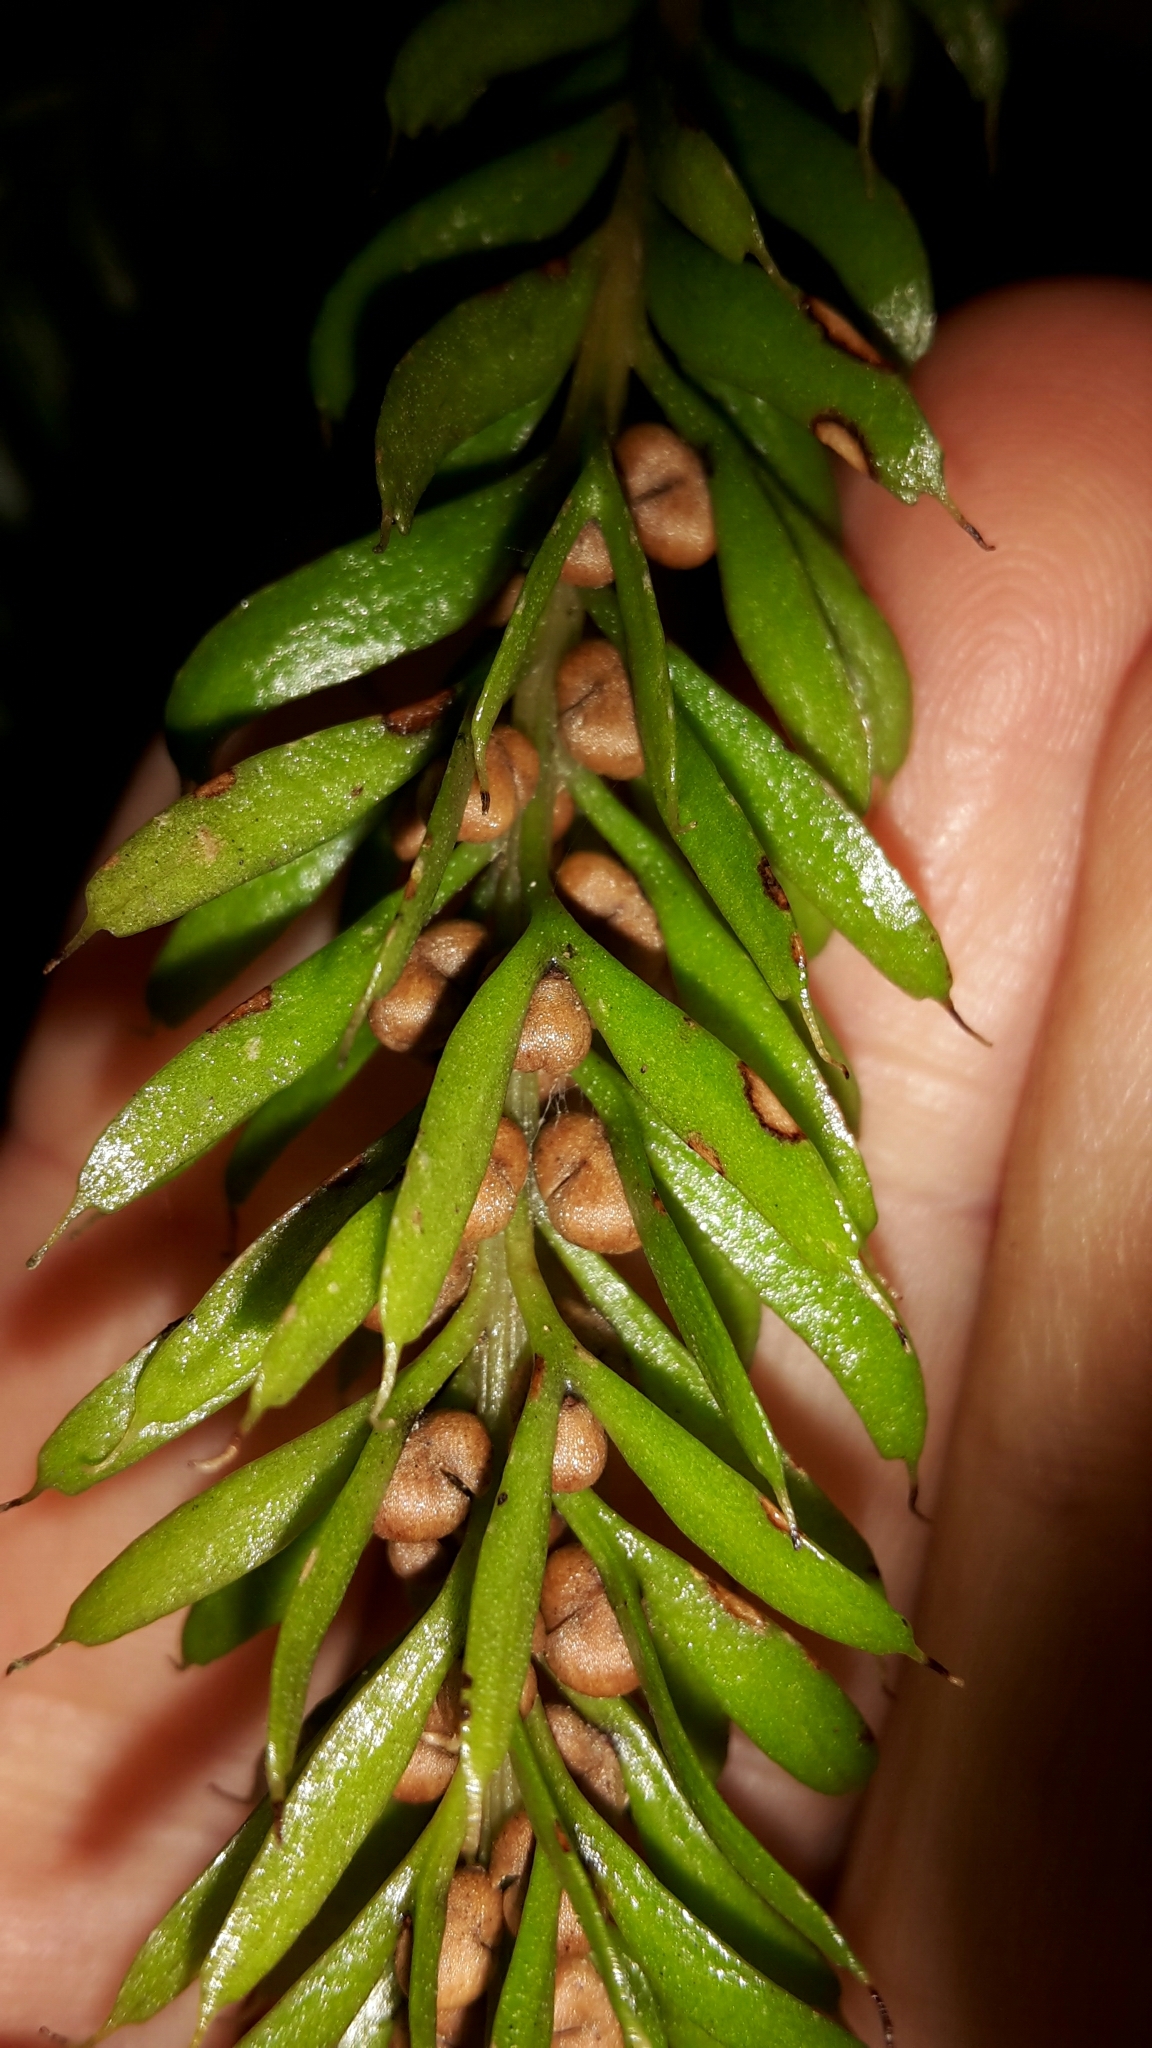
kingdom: Plantae
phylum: Tracheophyta
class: Polypodiopsida
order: Psilotales
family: Psilotaceae
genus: Tmesipteris
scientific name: Tmesipteris sigmatifolia
